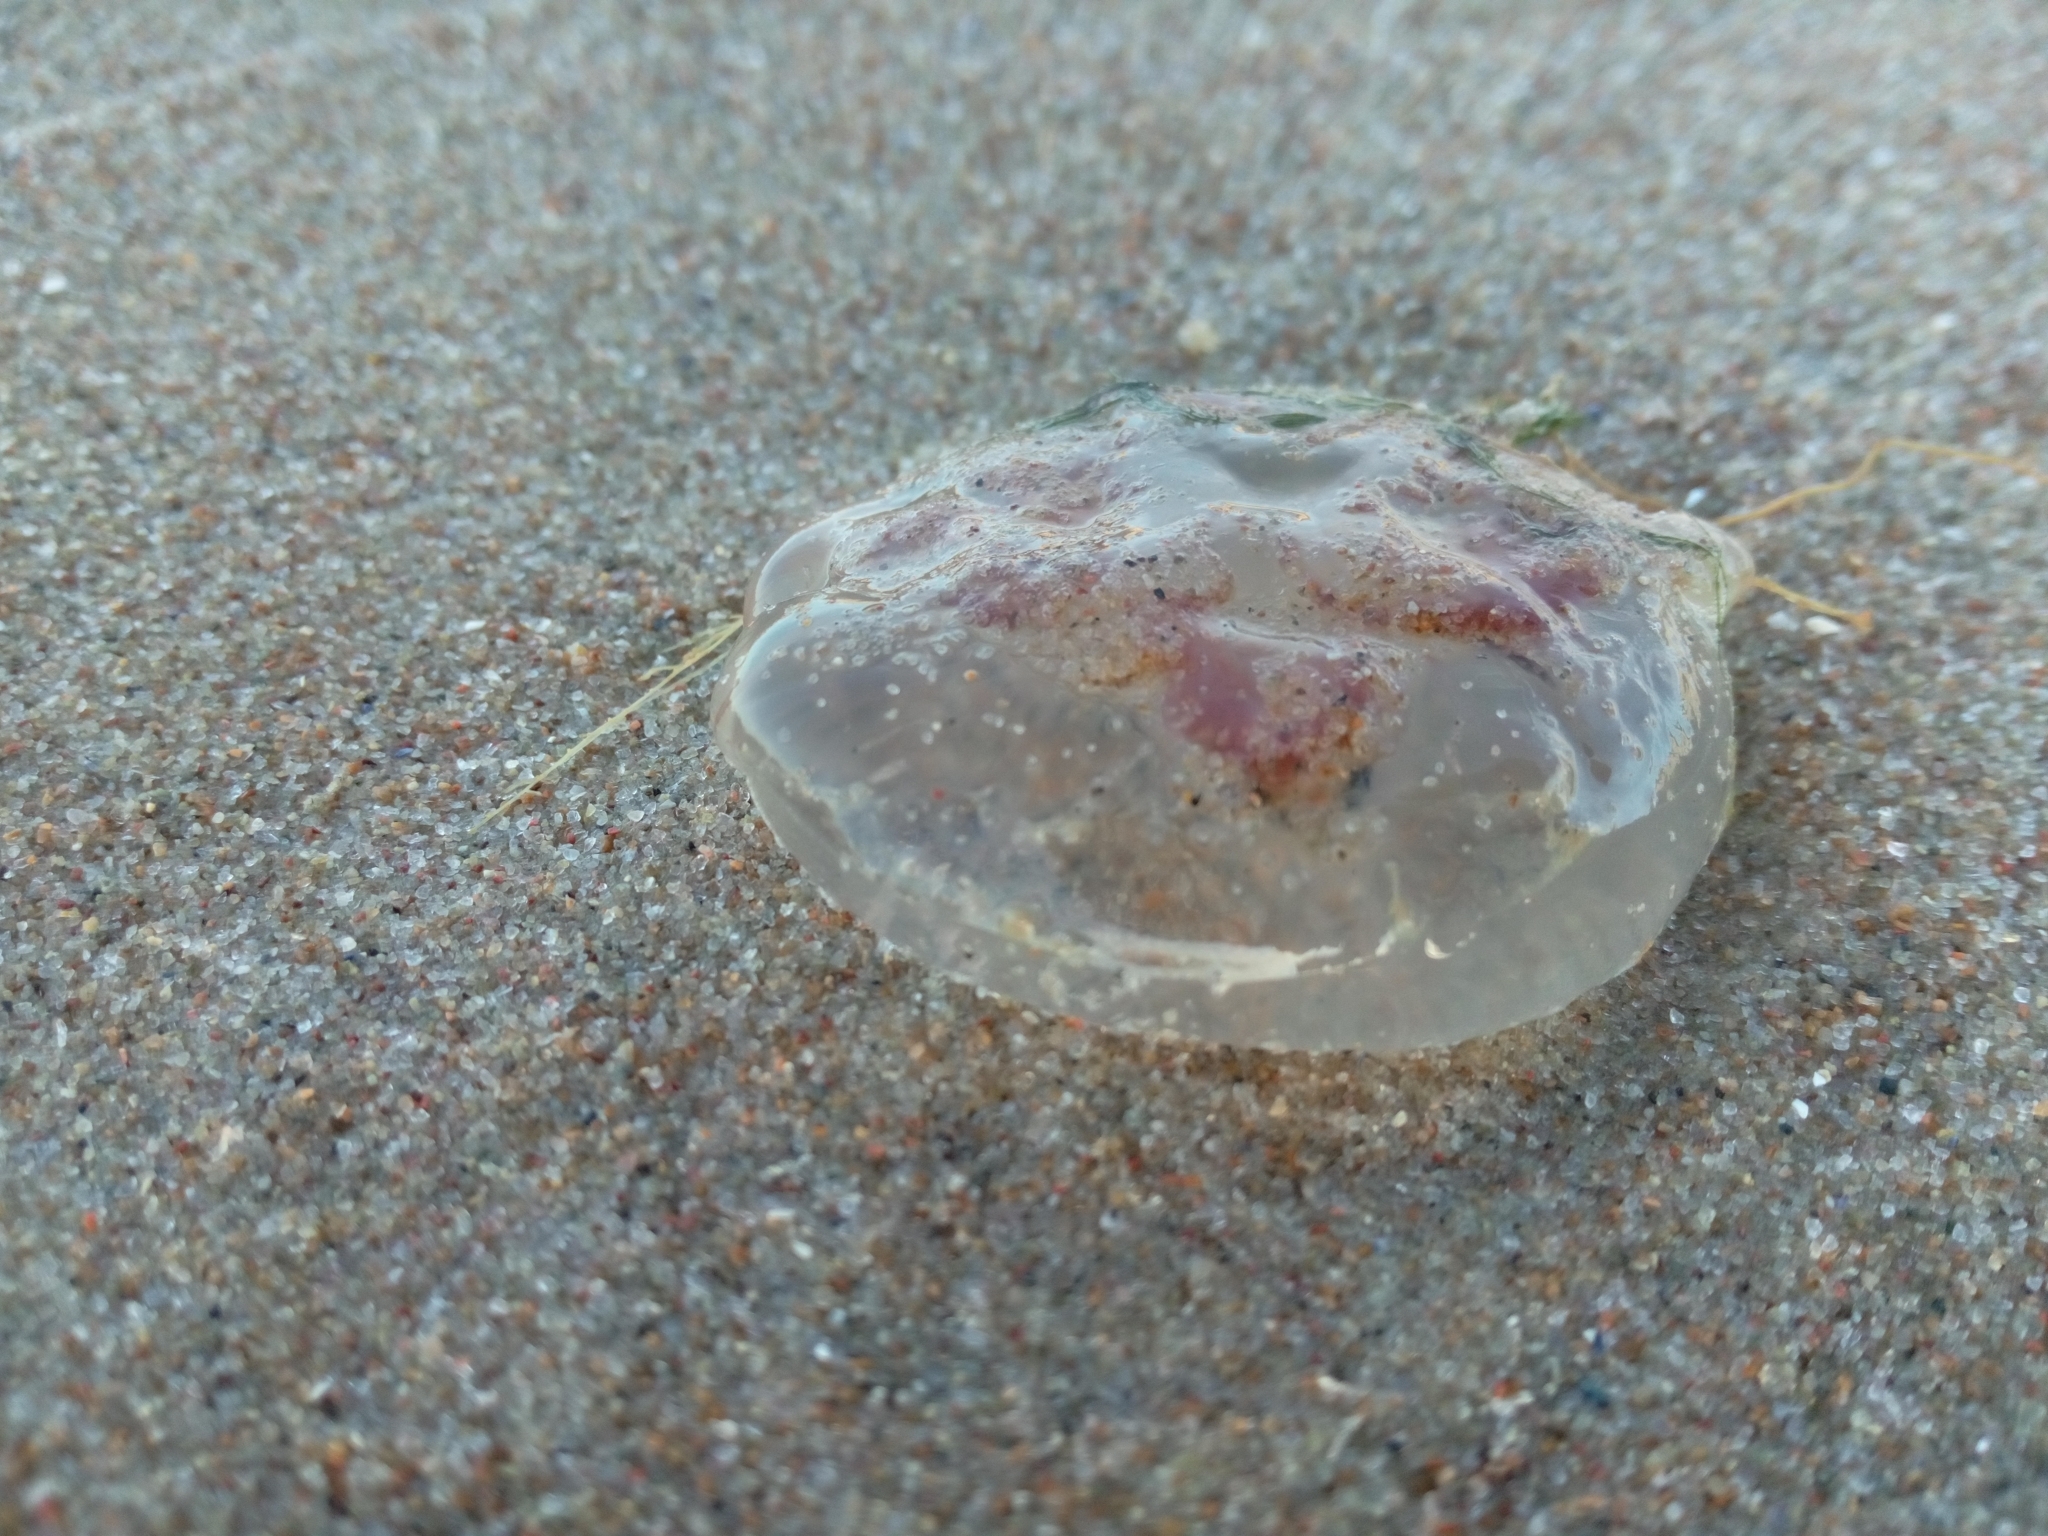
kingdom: Animalia
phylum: Cnidaria
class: Scyphozoa
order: Semaeostomeae
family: Ulmaridae
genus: Aurelia
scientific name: Aurelia aurita
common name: Moon jellyfish
